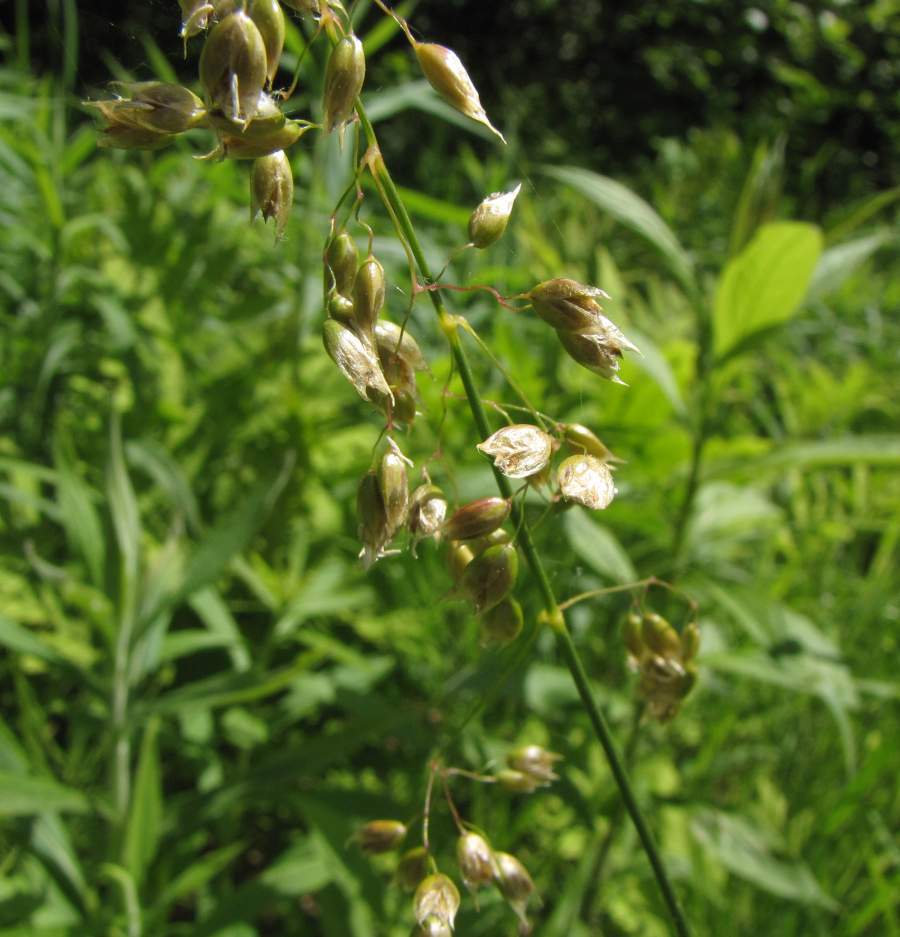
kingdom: Plantae
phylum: Tracheophyta
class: Liliopsida
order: Poales
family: Poaceae
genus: Anthoxanthum
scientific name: Anthoxanthum nitens
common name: Holy grass
